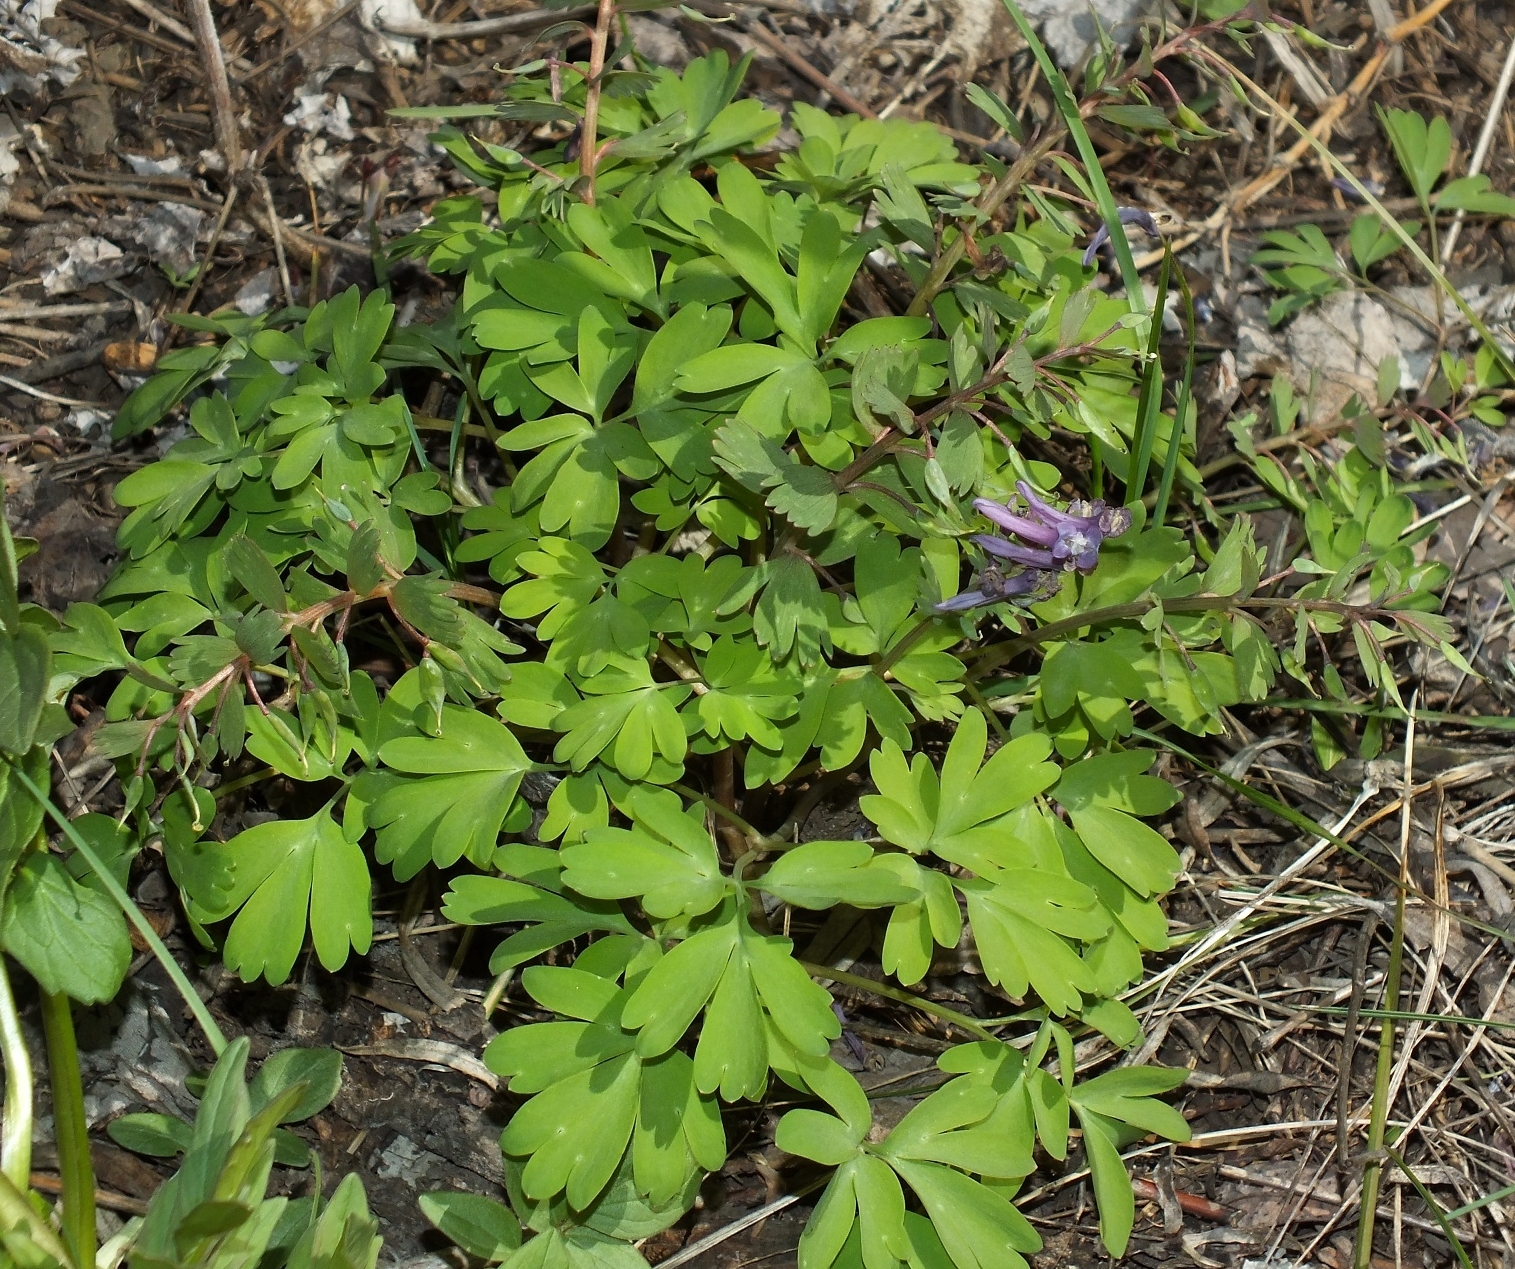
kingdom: Plantae
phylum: Tracheophyta
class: Magnoliopsida
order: Ranunculales
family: Papaveraceae
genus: Corydalis
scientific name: Corydalis solida
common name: Bird-in-a-bush
